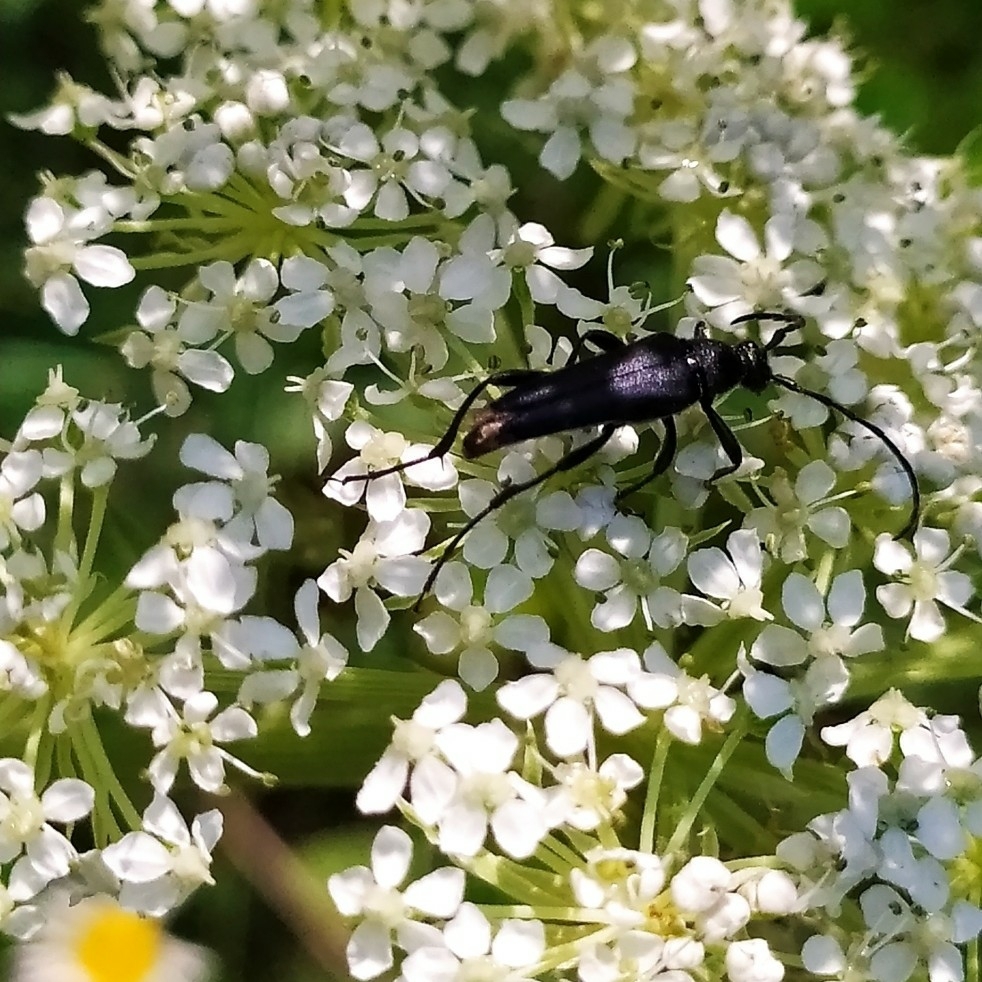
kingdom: Animalia
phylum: Arthropoda
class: Insecta
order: Coleoptera
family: Cerambycidae
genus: Leptura
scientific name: Leptura aethiops
